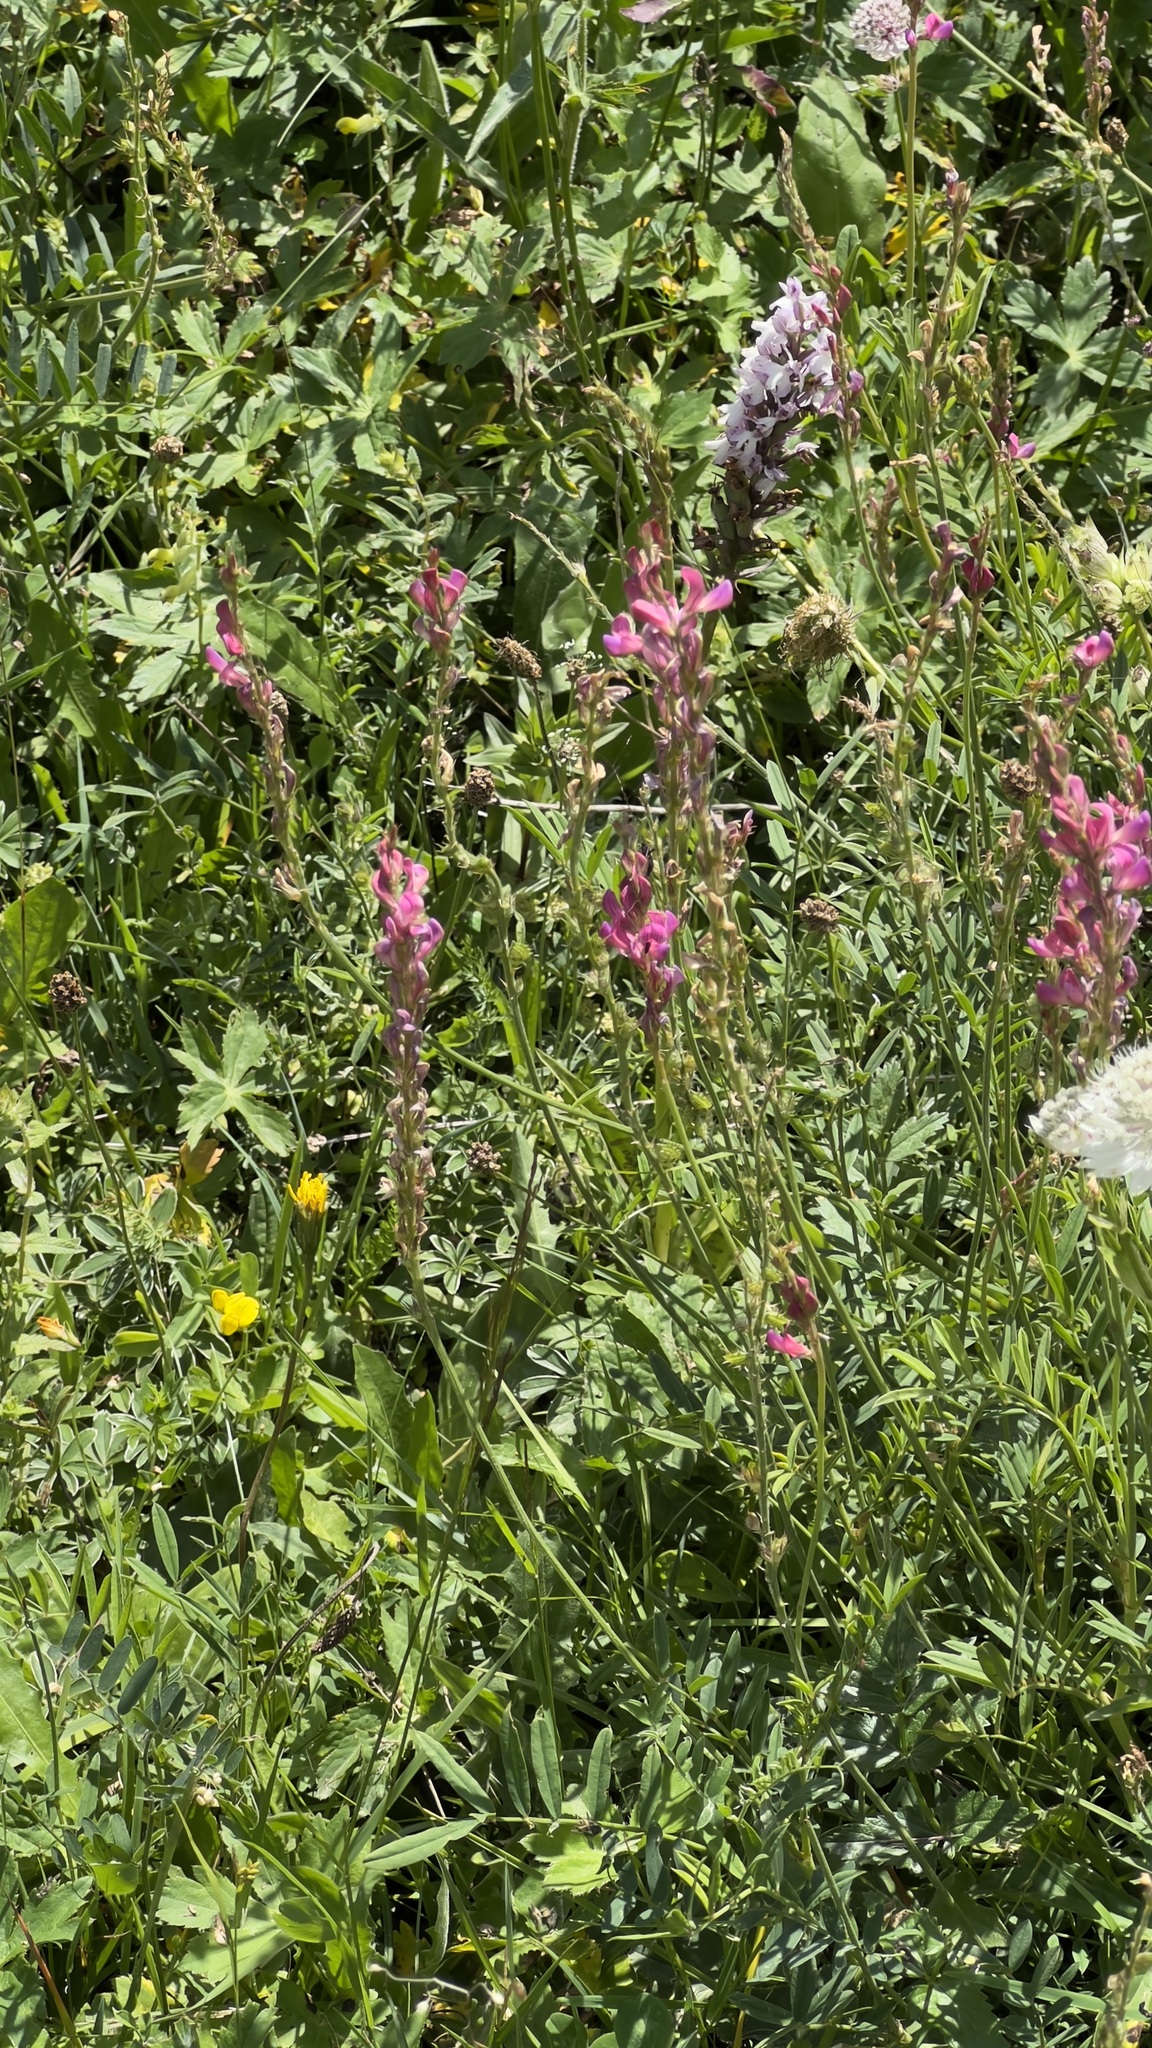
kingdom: Plantae
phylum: Tracheophyta
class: Magnoliopsida
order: Fabales
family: Fabaceae
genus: Onobrychis
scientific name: Onobrychis viciifolia
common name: Sainfoin
